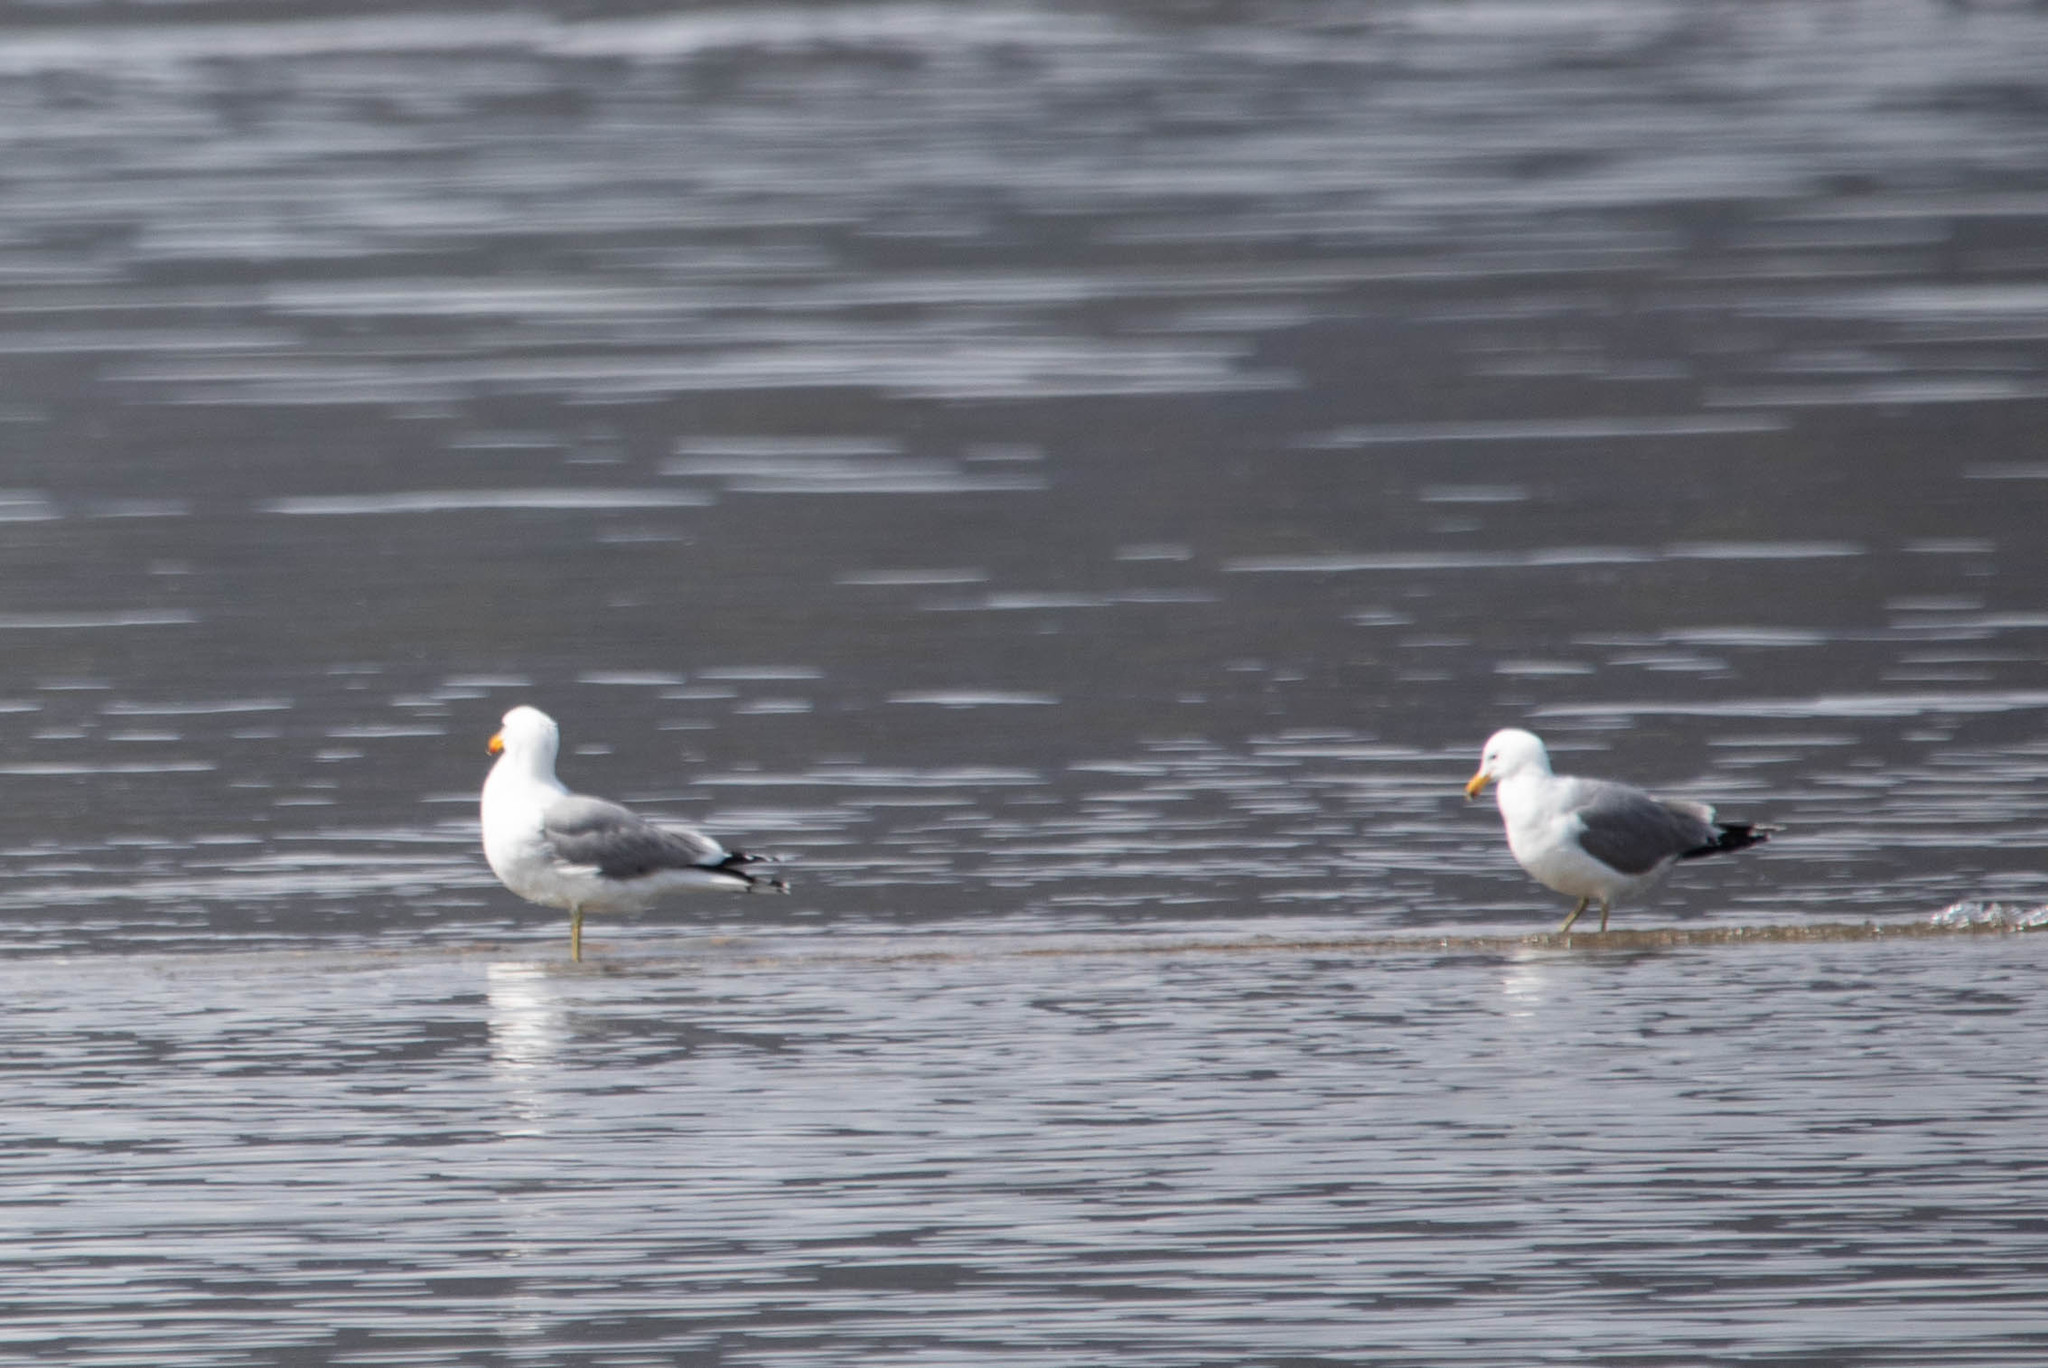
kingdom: Animalia
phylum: Chordata
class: Aves
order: Charadriiformes
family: Laridae
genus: Larus
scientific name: Larus californicus
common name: California gull
